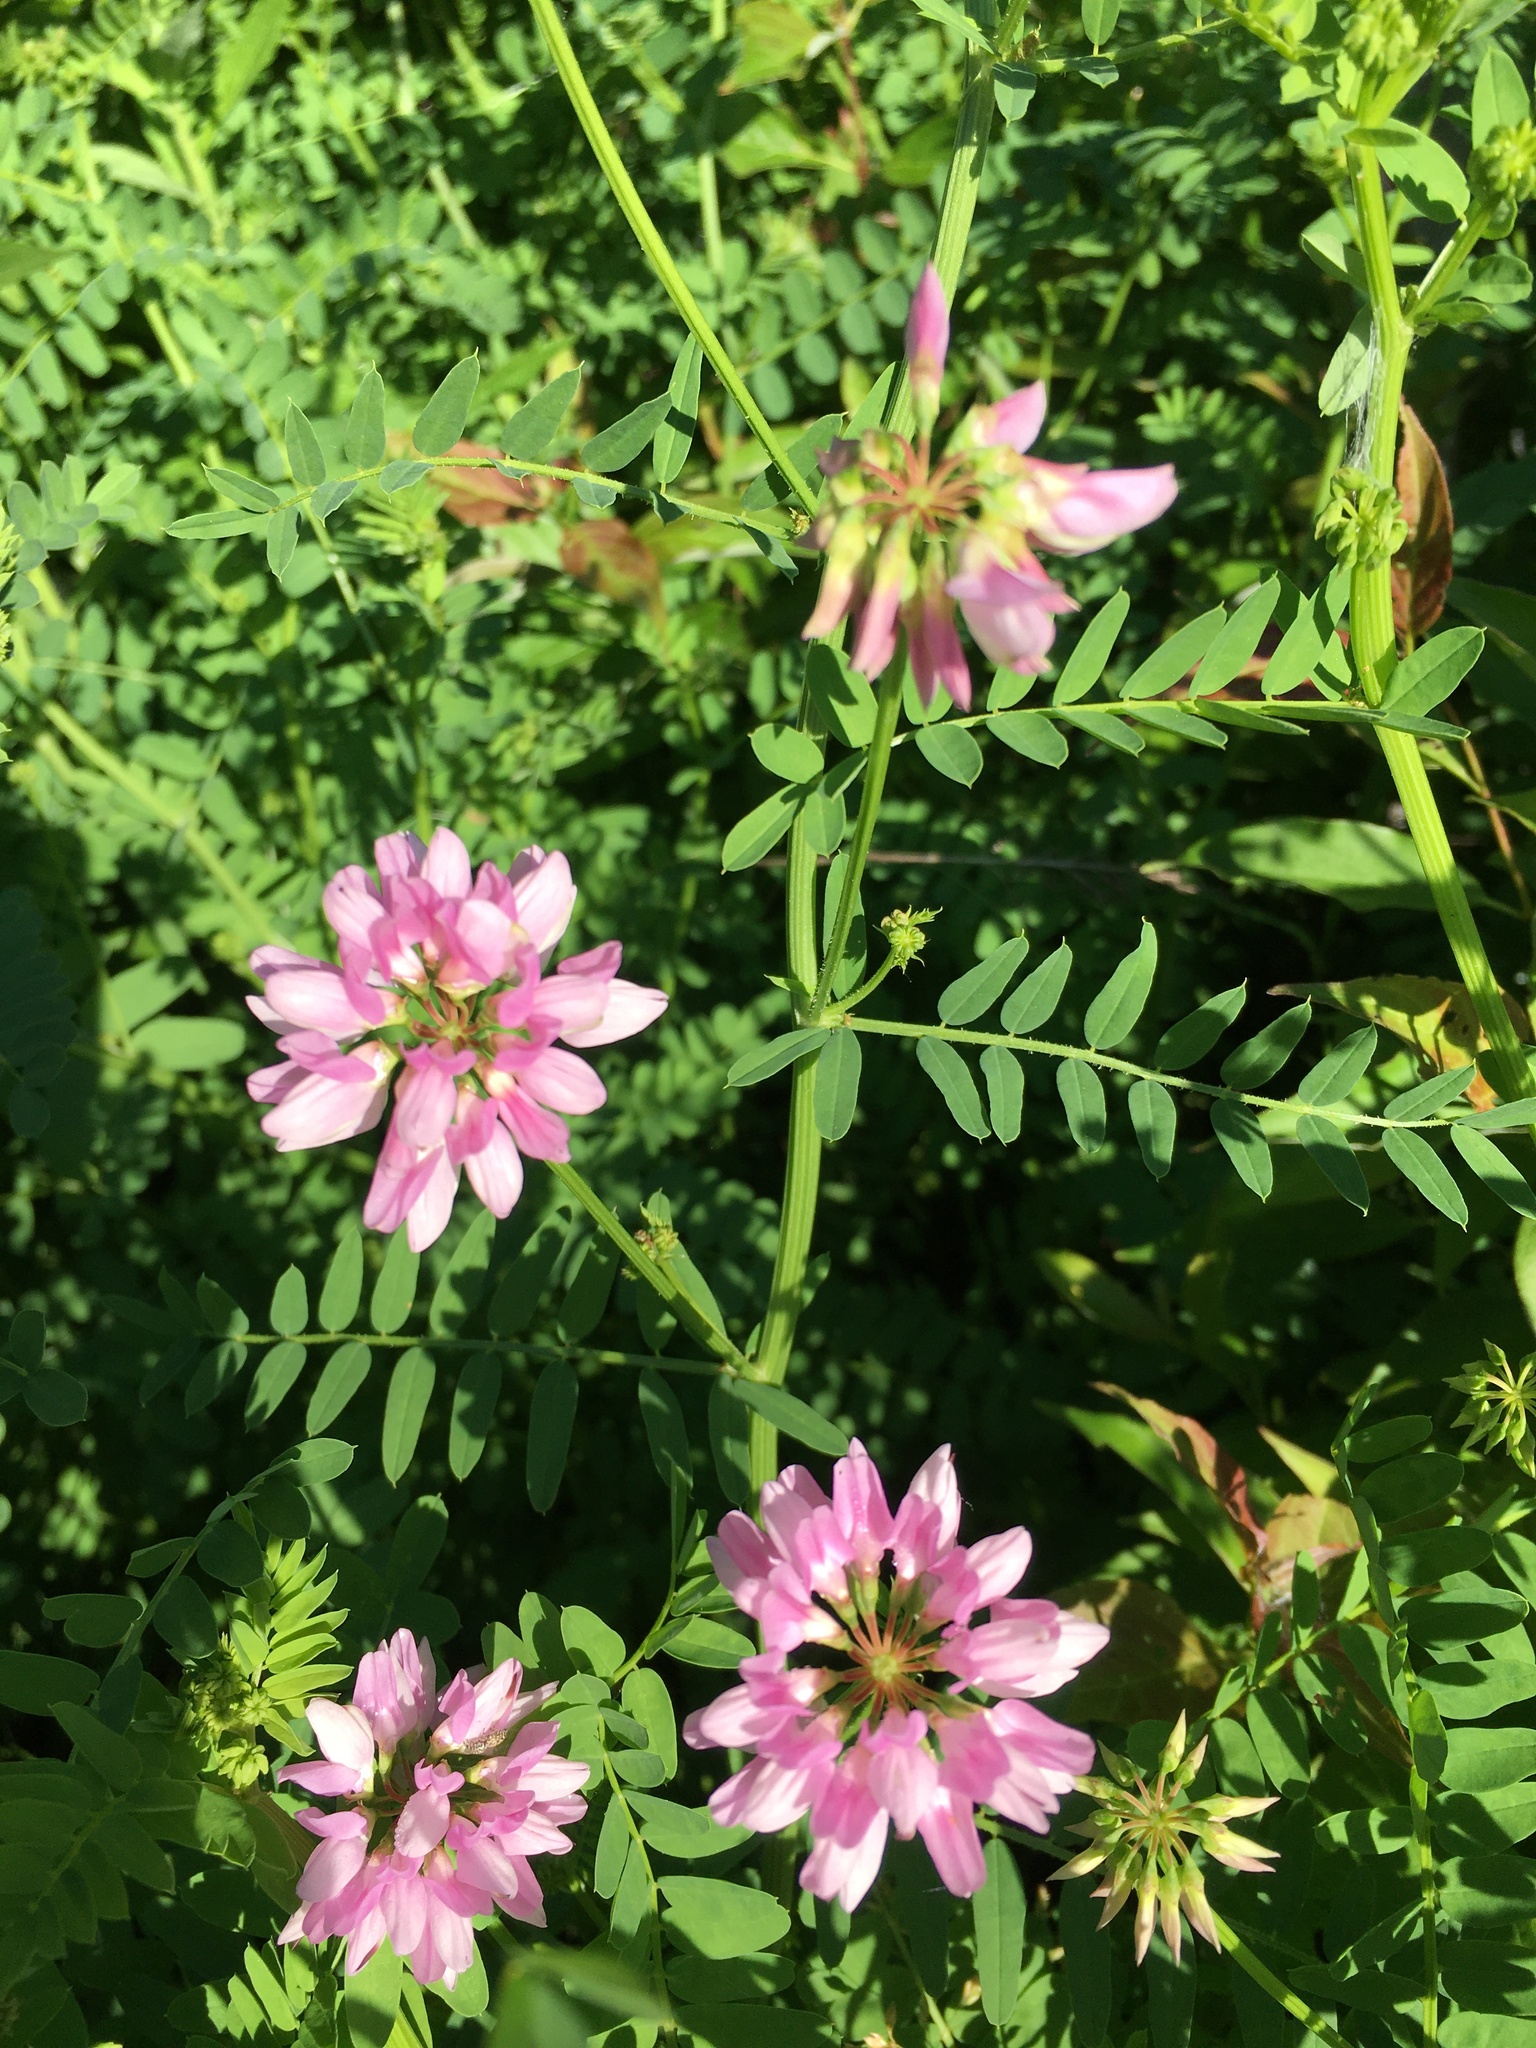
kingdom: Plantae
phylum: Tracheophyta
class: Magnoliopsida
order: Fabales
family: Fabaceae
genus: Coronilla
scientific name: Coronilla varia
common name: Crownvetch
